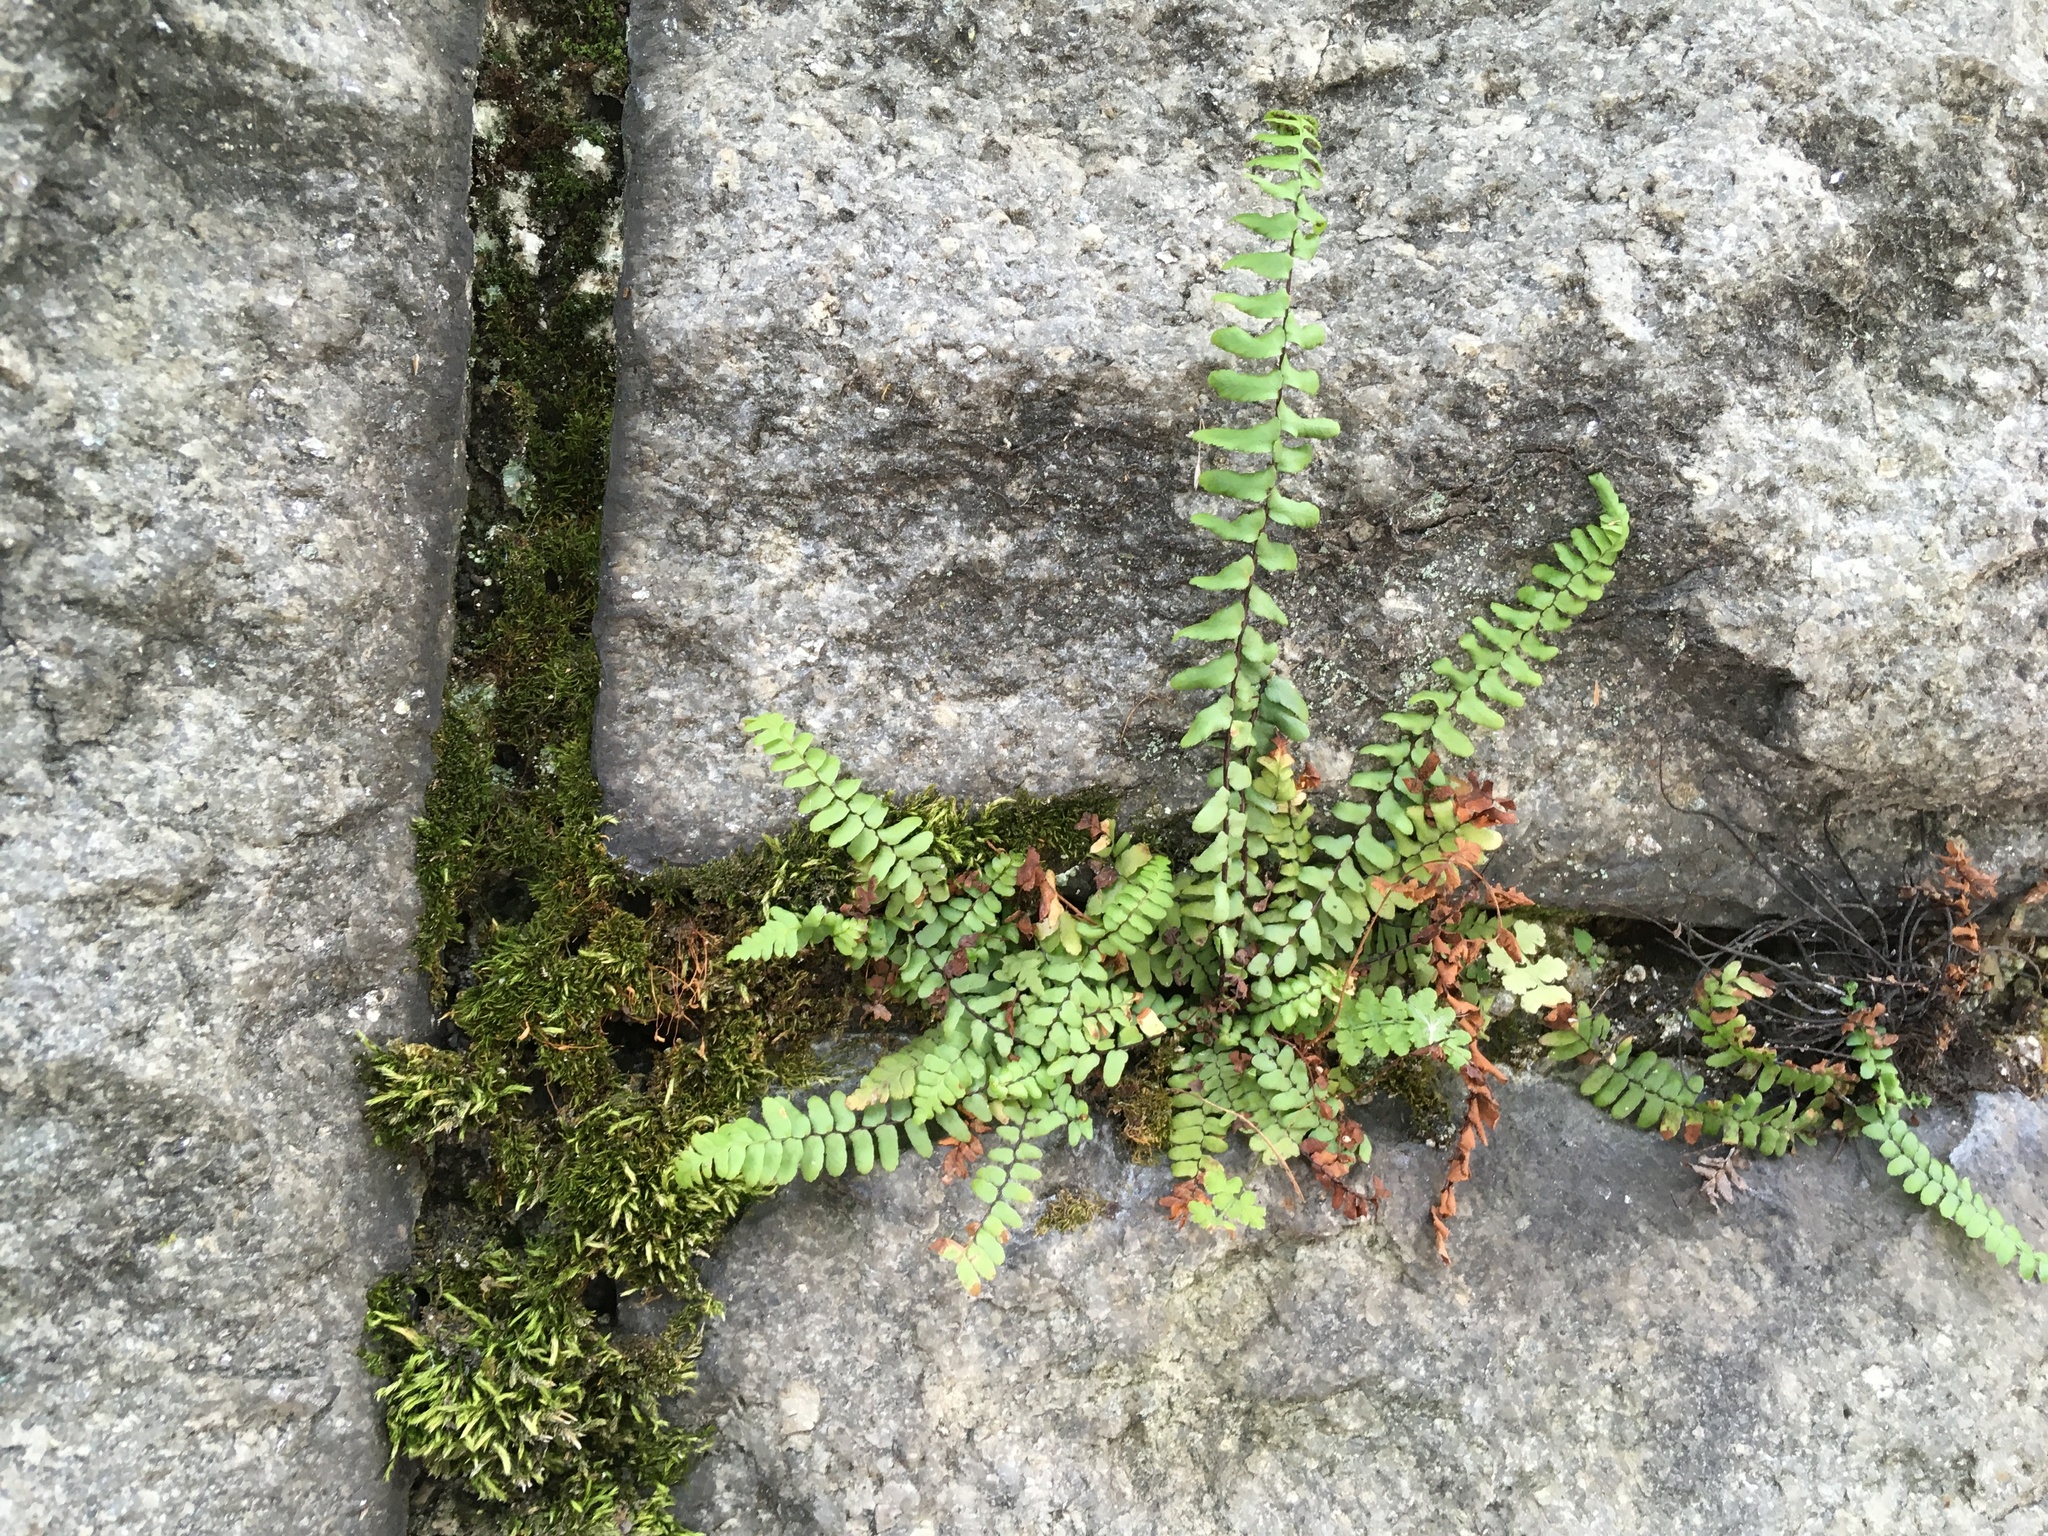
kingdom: Plantae
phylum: Tracheophyta
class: Polypodiopsida
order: Polypodiales
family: Aspleniaceae
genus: Asplenium
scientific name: Asplenium platyneuron
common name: Ebony spleenwort
